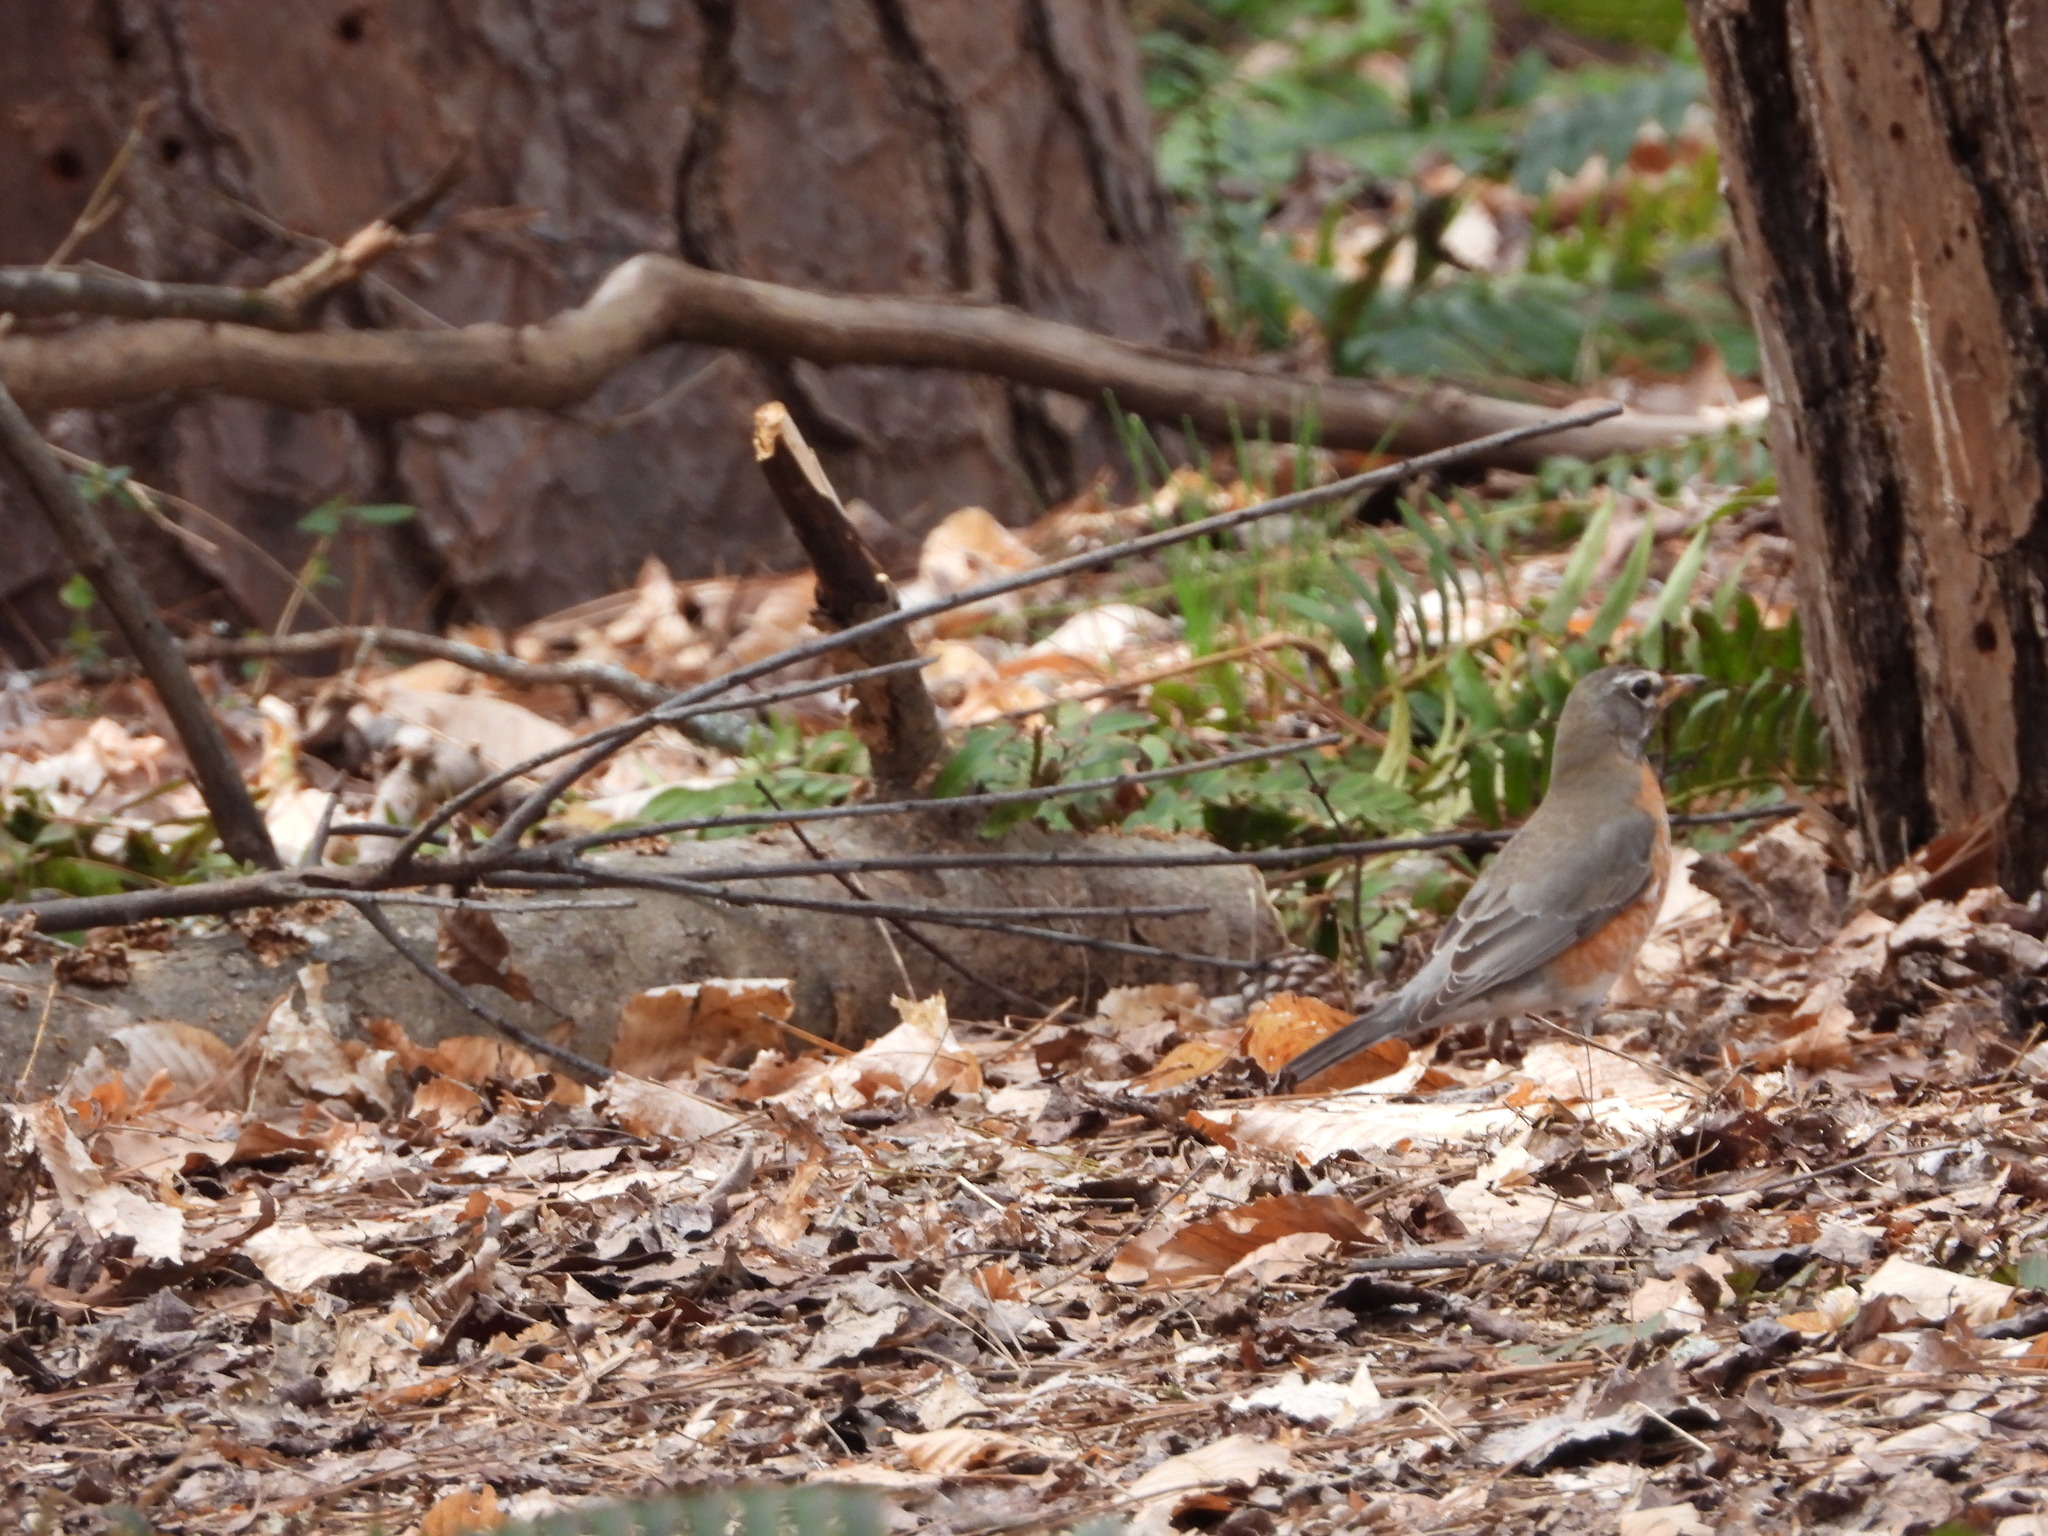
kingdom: Animalia
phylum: Chordata
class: Aves
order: Passeriformes
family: Turdidae
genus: Turdus
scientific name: Turdus migratorius
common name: American robin
